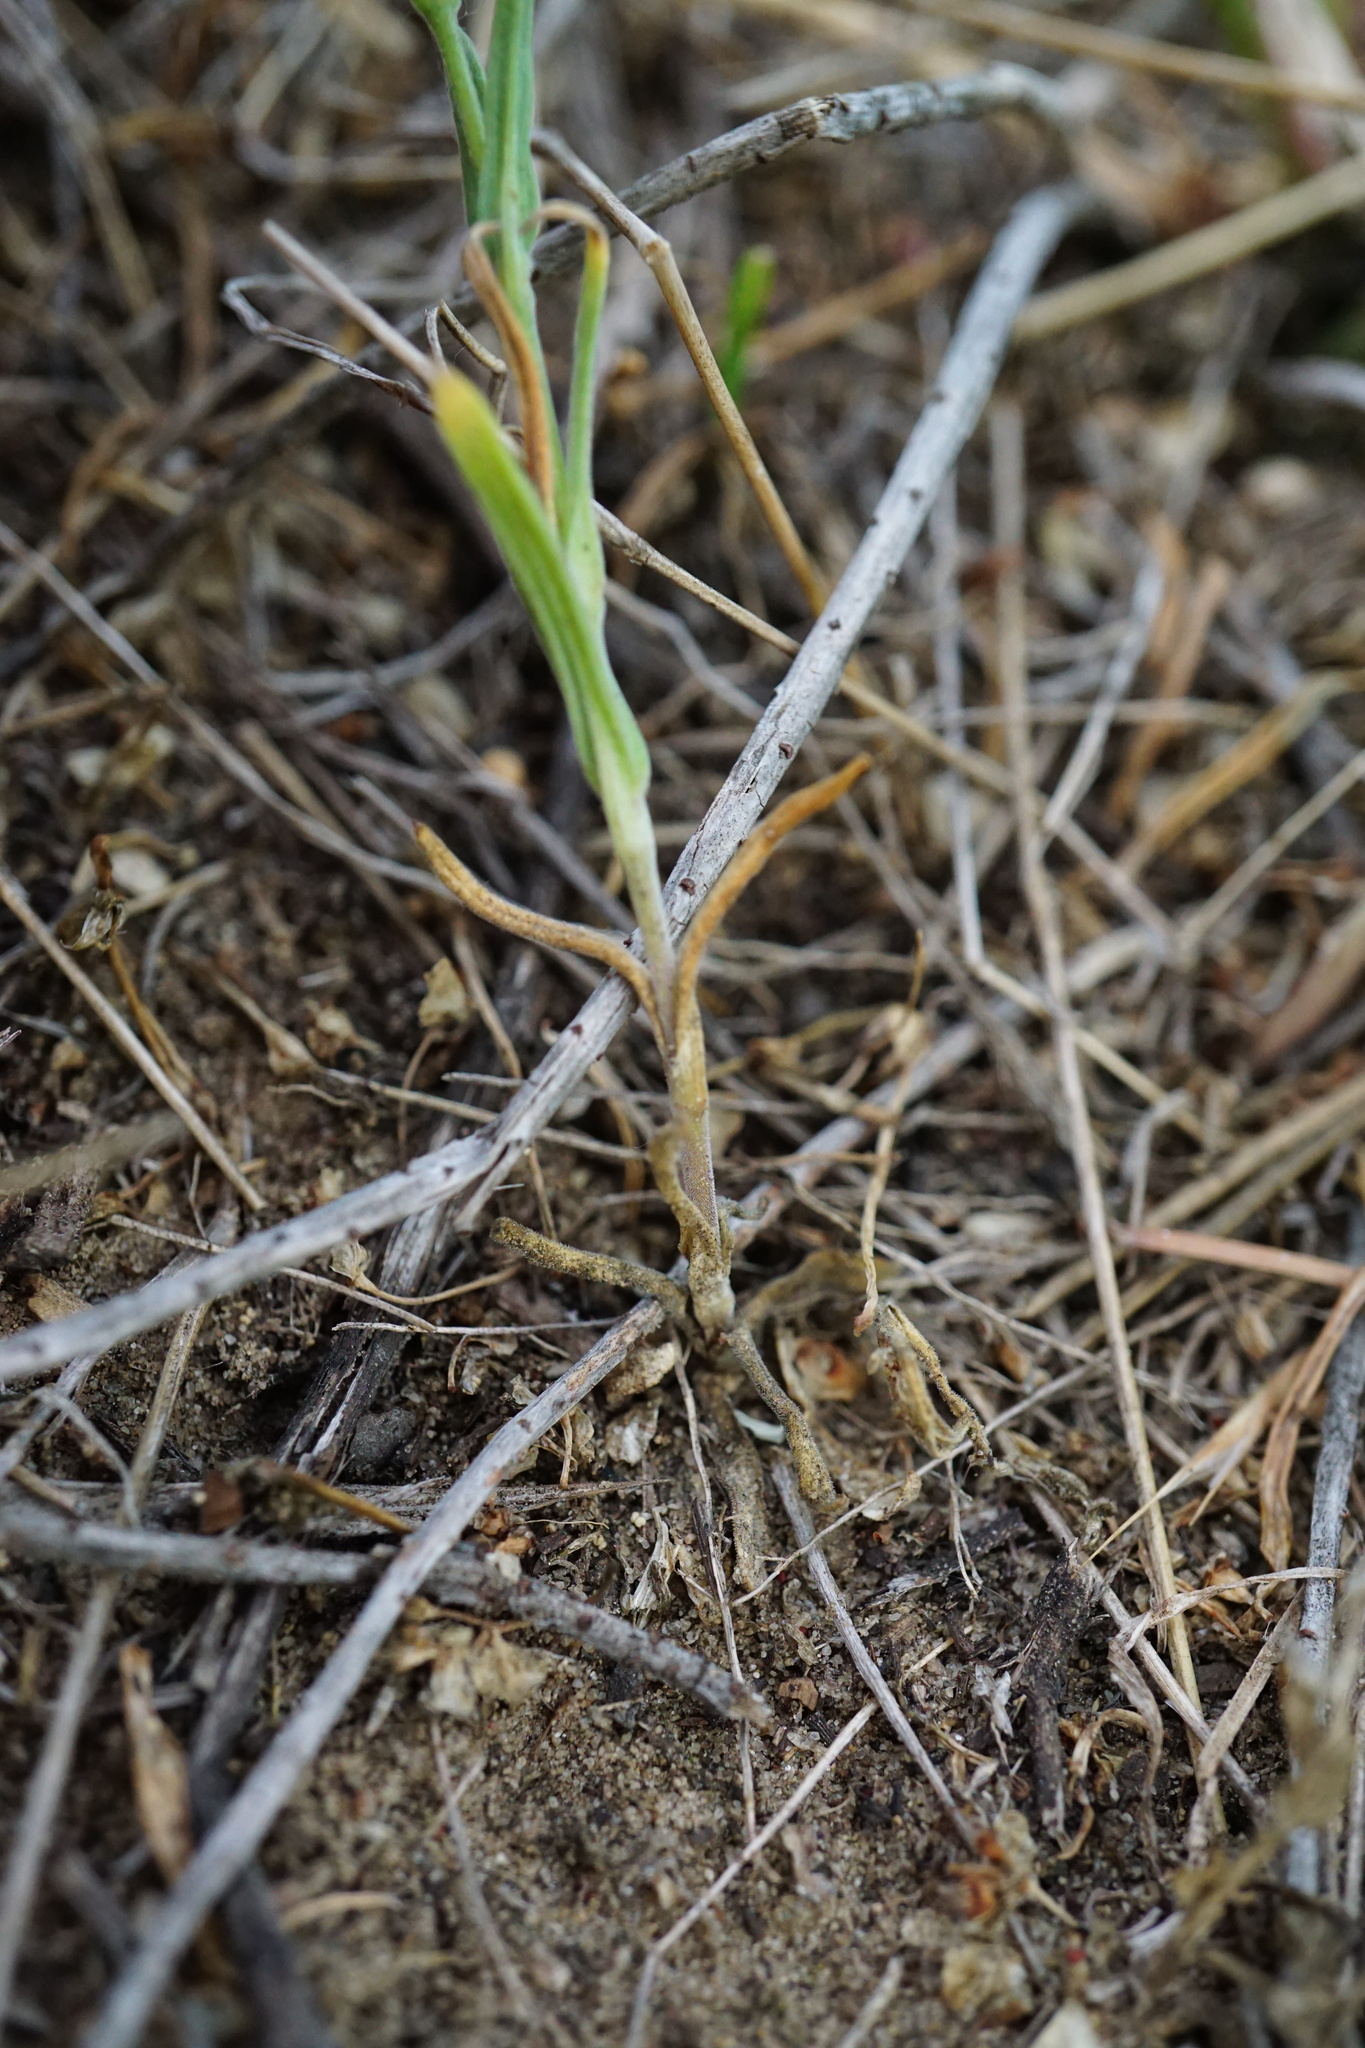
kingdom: Plantae
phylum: Tracheophyta
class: Magnoliopsida
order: Caryophyllales
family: Caryophyllaceae
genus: Silene
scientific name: Silene conica
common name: Sand catchfly
